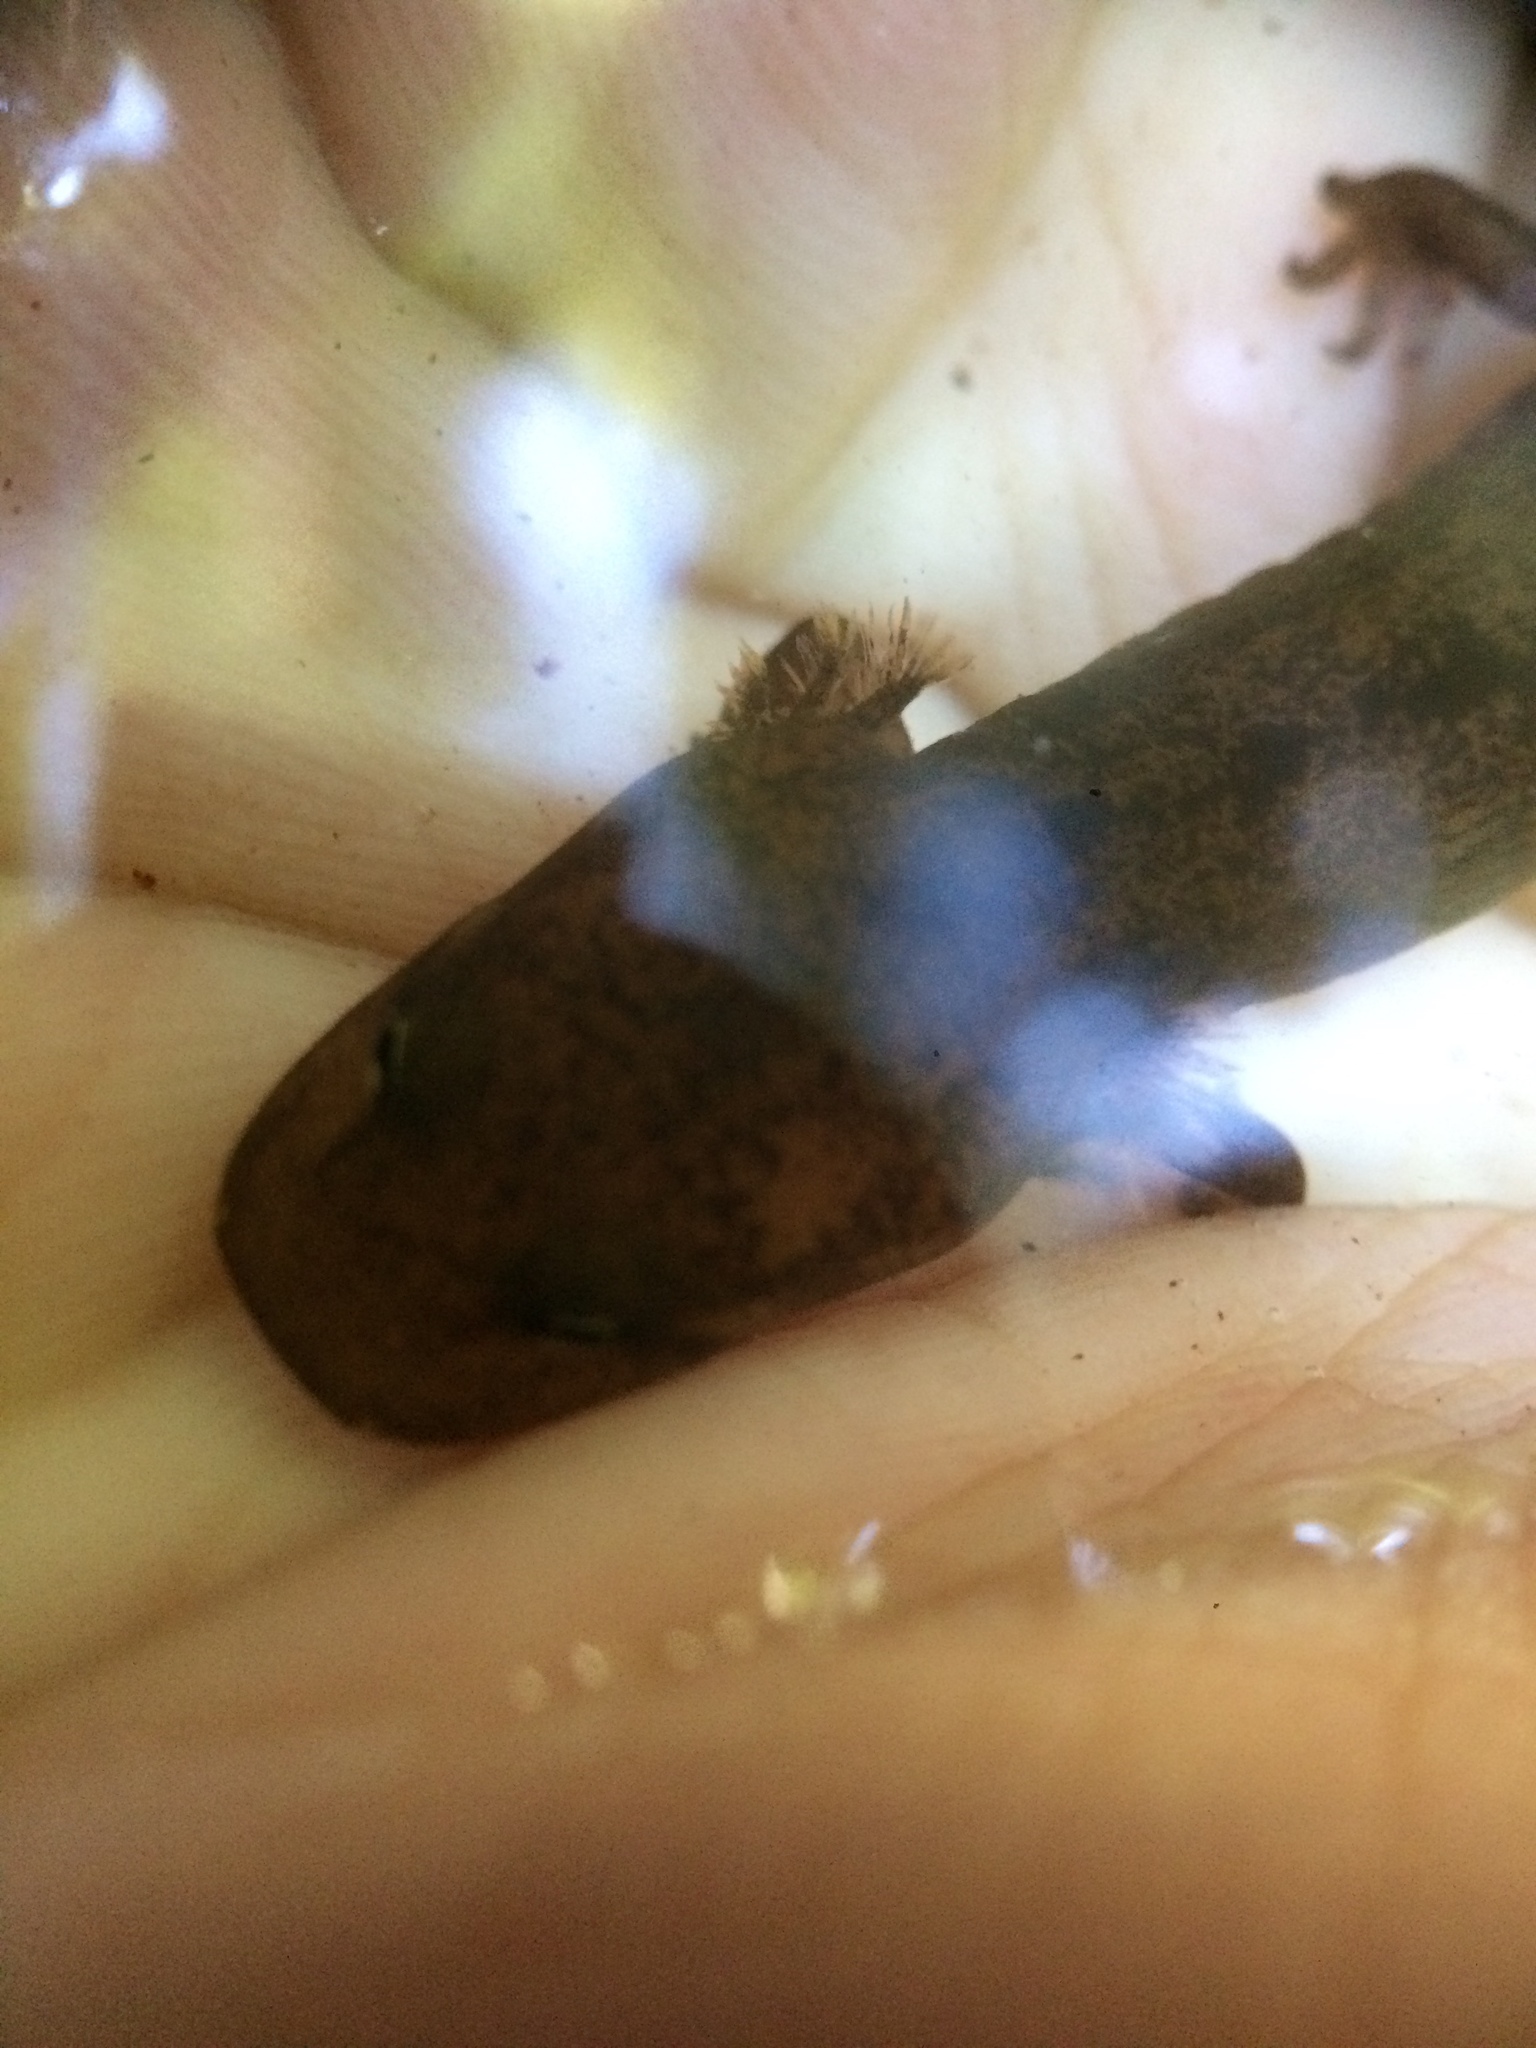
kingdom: Animalia
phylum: Chordata
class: Amphibia
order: Caudata
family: Ambystomatidae
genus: Dicamptodon
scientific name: Dicamptodon tenebrosus
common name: Coastal giant salamander
